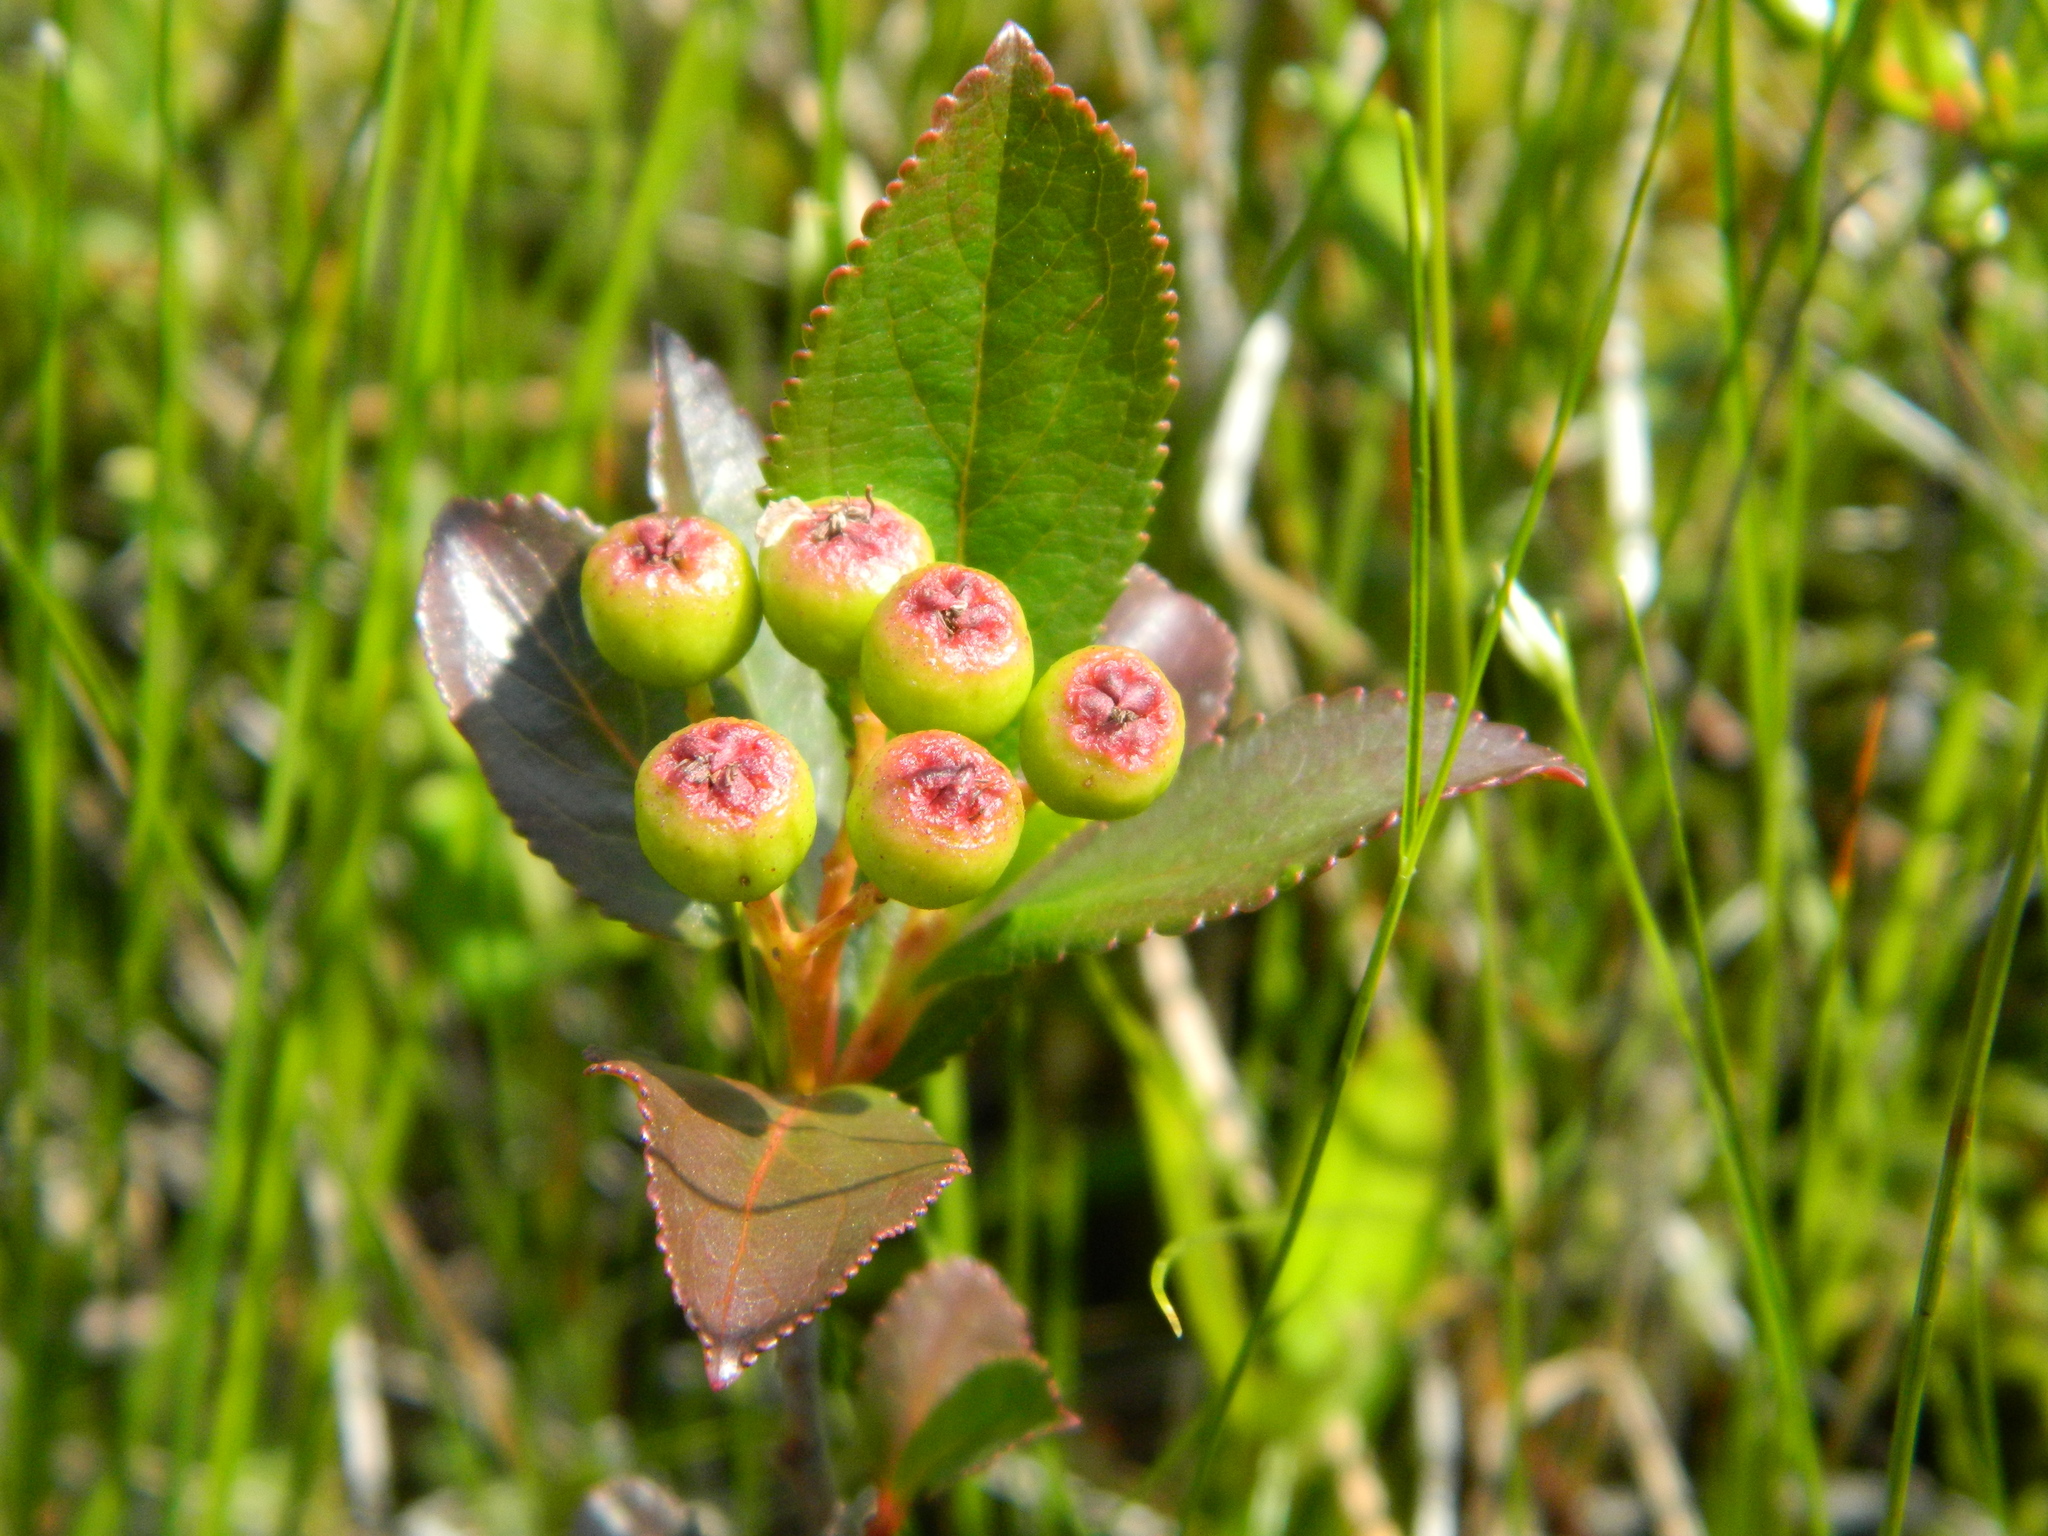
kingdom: Plantae
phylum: Tracheophyta
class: Magnoliopsida
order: Rosales
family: Rosaceae
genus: Aronia
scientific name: Aronia melanocarpa
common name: Black chokeberry
